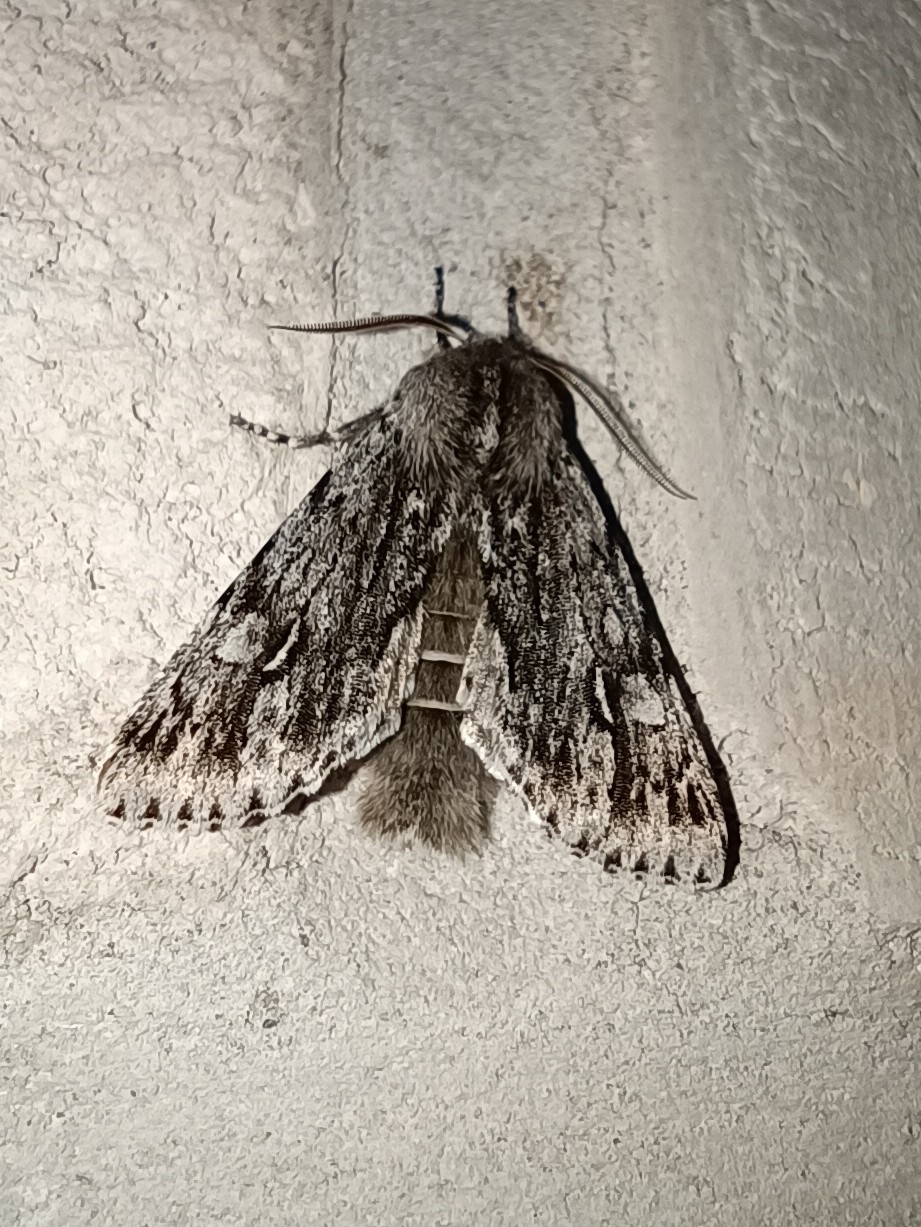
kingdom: Animalia
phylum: Arthropoda
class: Insecta
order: Lepidoptera
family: Noctuidae
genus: Brachionycha
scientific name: Brachionycha nubeculosa
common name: Rannoch sprawler
